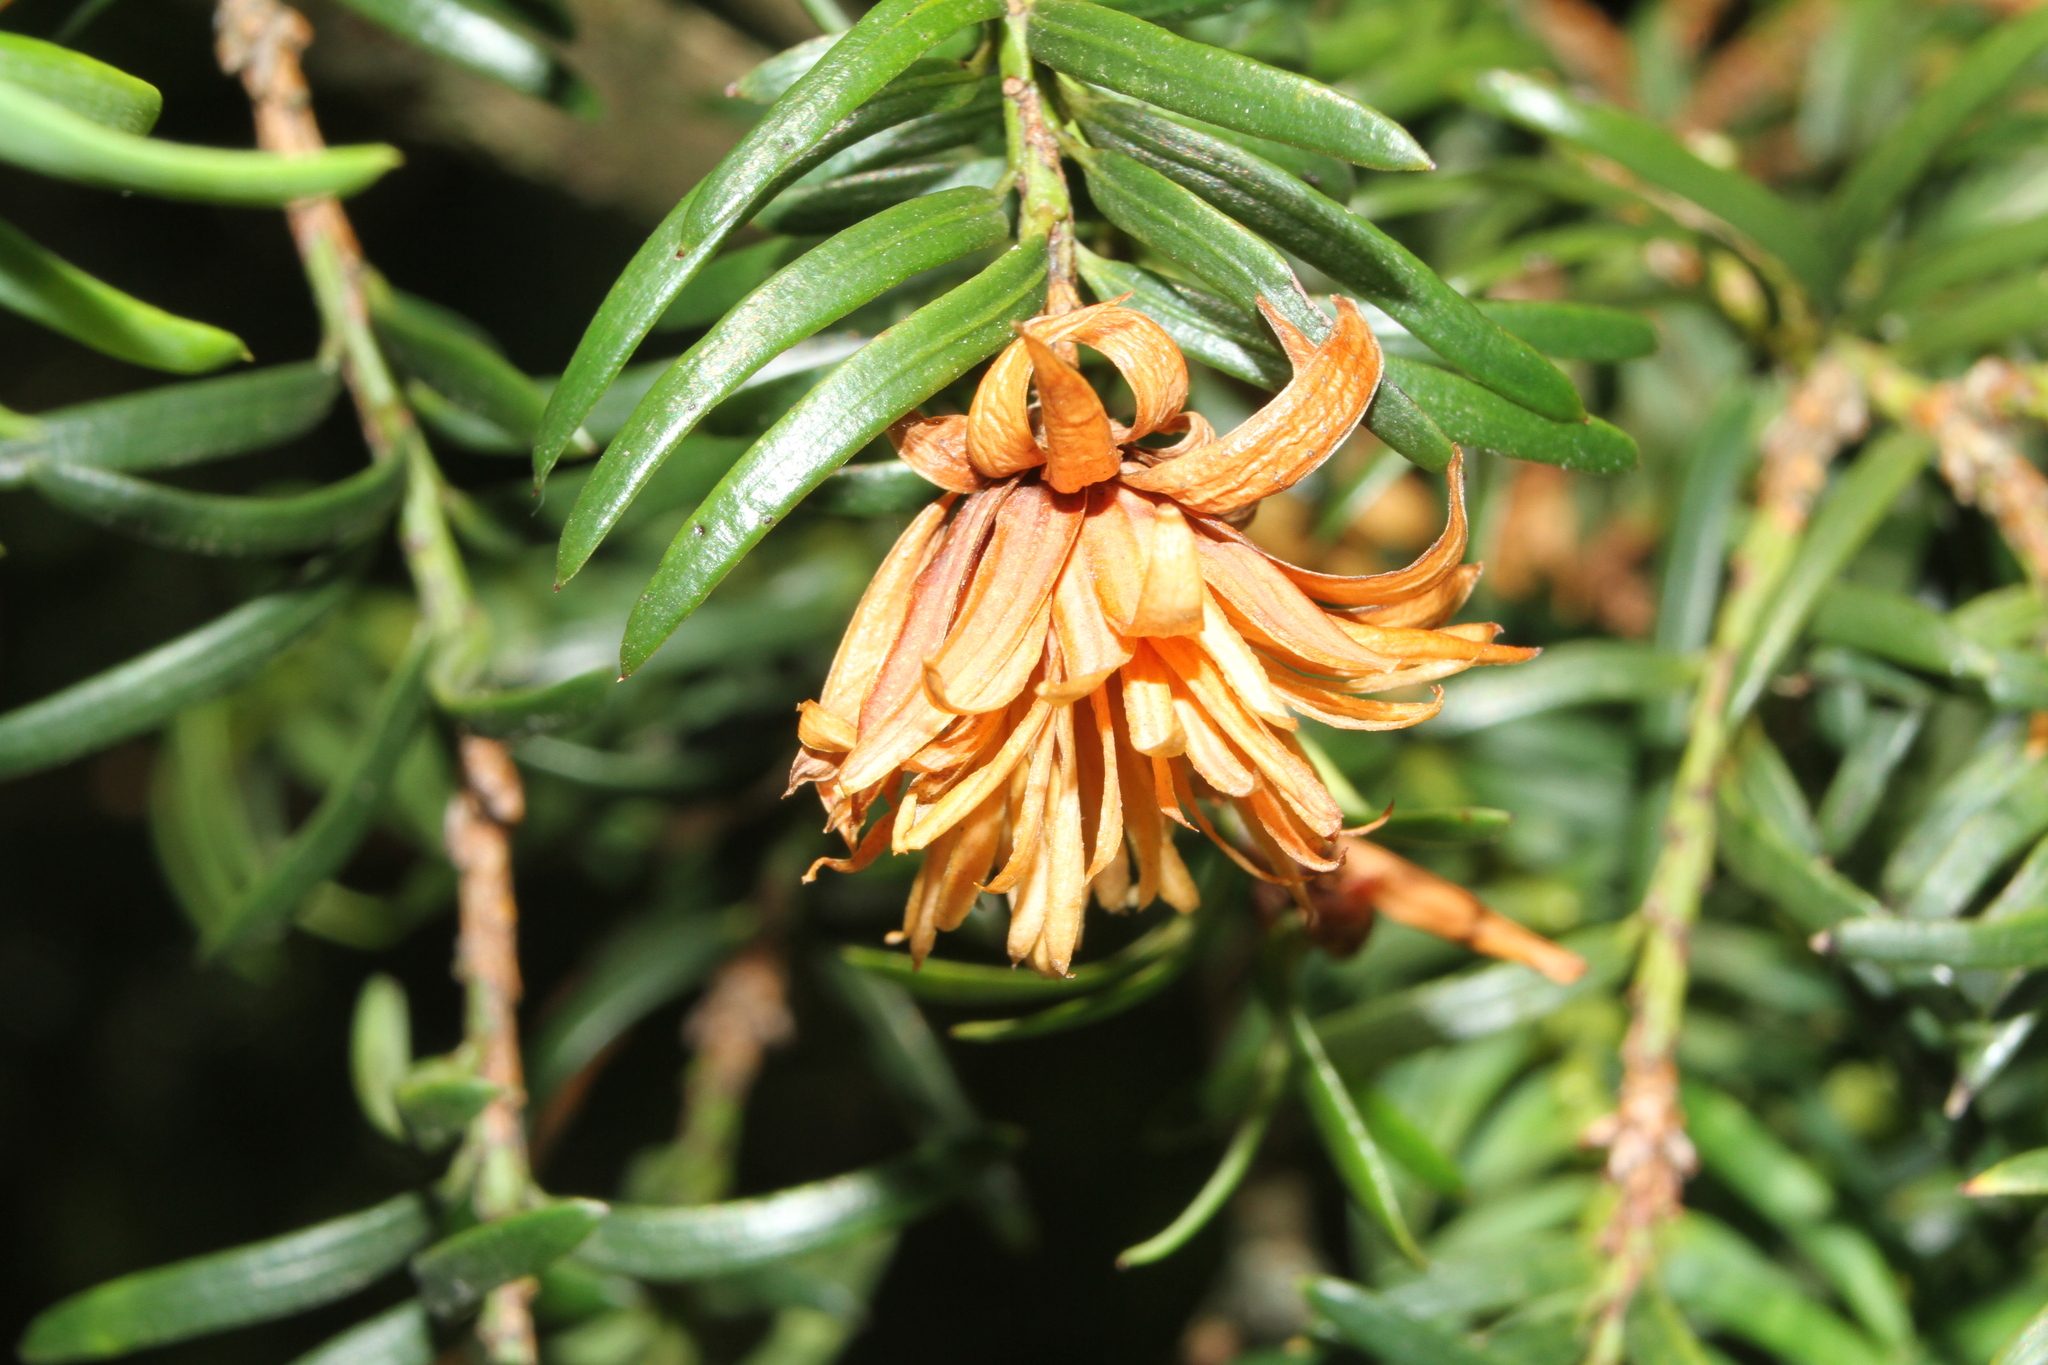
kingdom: Animalia
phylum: Arthropoda
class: Insecta
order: Diptera
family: Cecidomyiidae
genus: Taxomyia
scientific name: Taxomyia taxi
